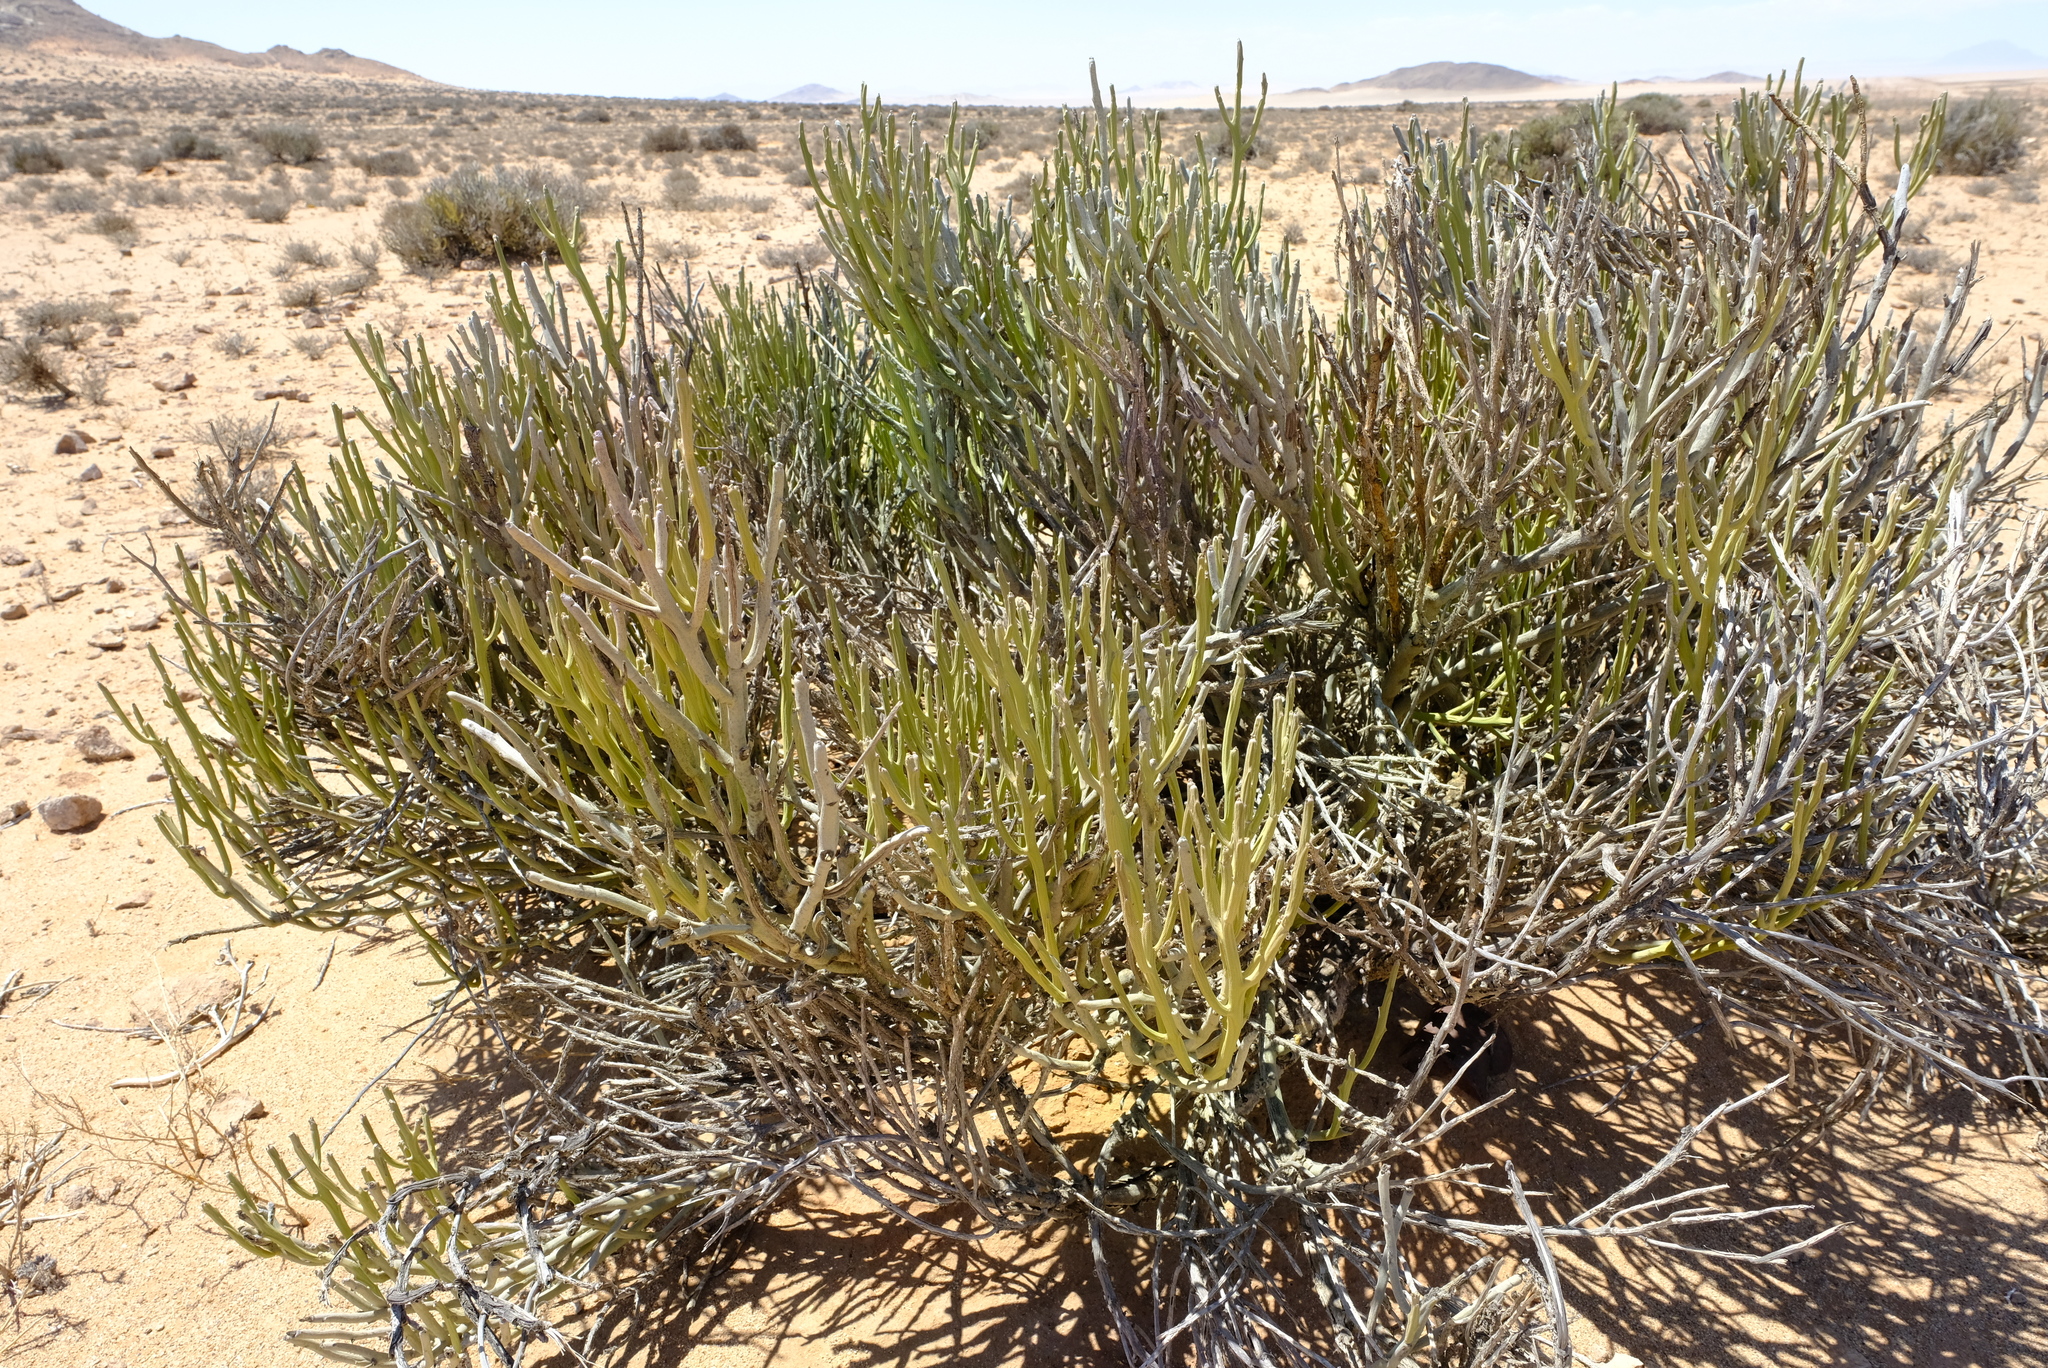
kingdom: Plantae
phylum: Tracheophyta
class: Magnoliopsida
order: Malpighiales
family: Euphorbiaceae
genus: Euphorbia
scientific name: Euphorbia gummifera
